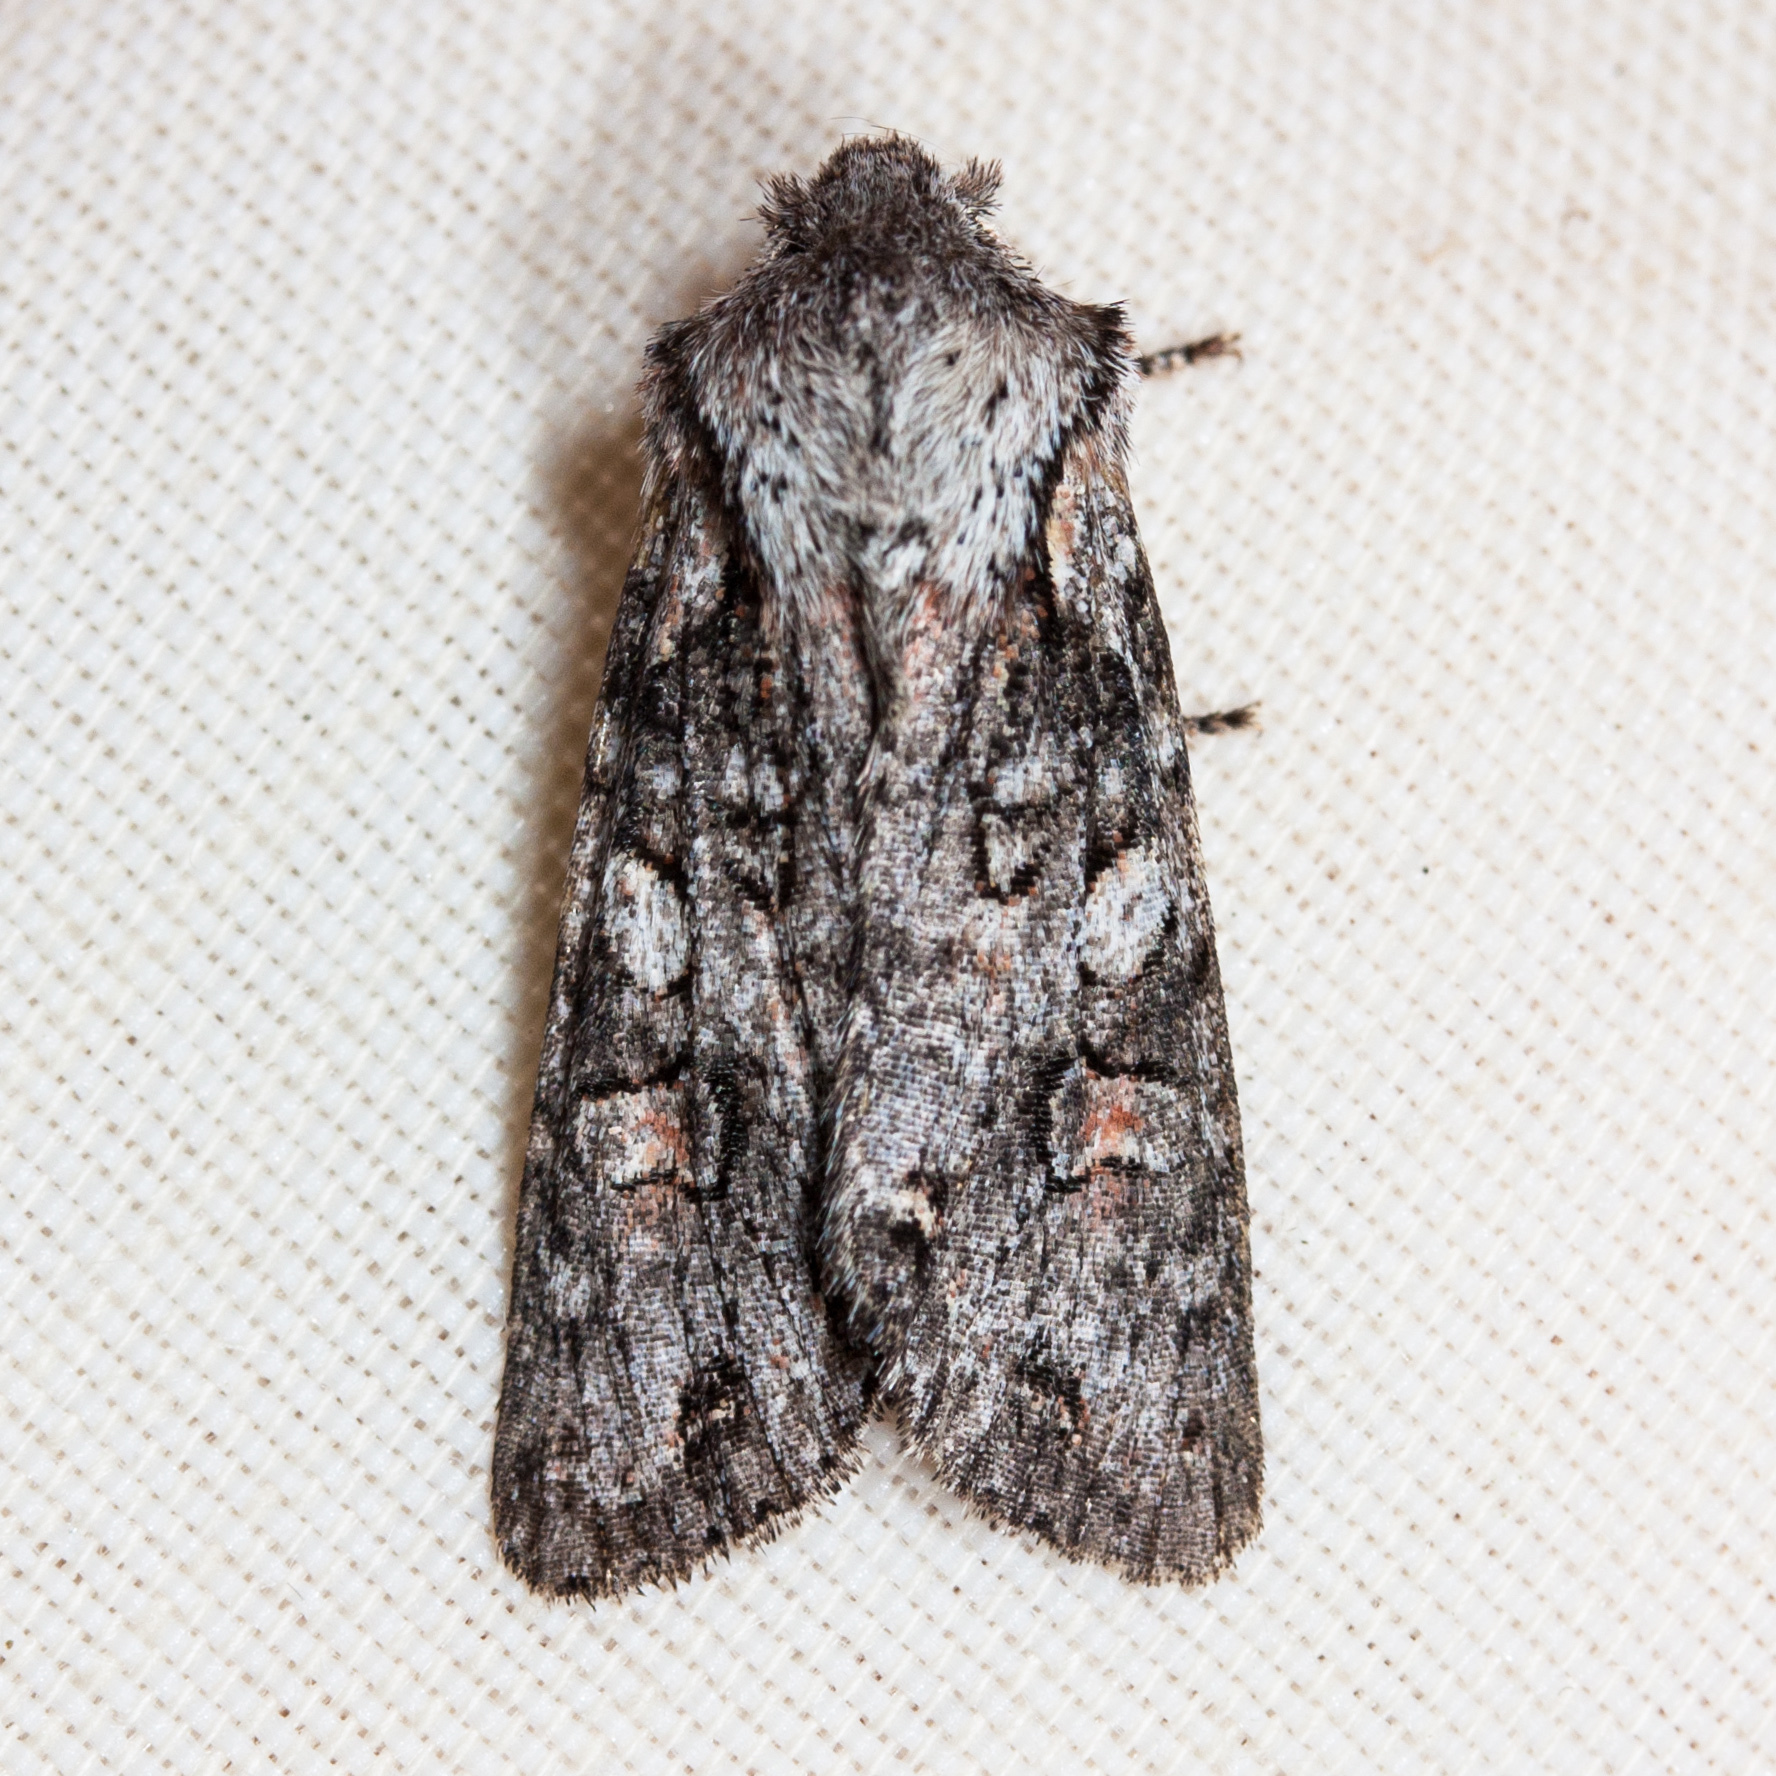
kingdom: Animalia
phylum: Arthropoda
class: Insecta
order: Lepidoptera
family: Noctuidae
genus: Egira
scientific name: Egira hiemalis
